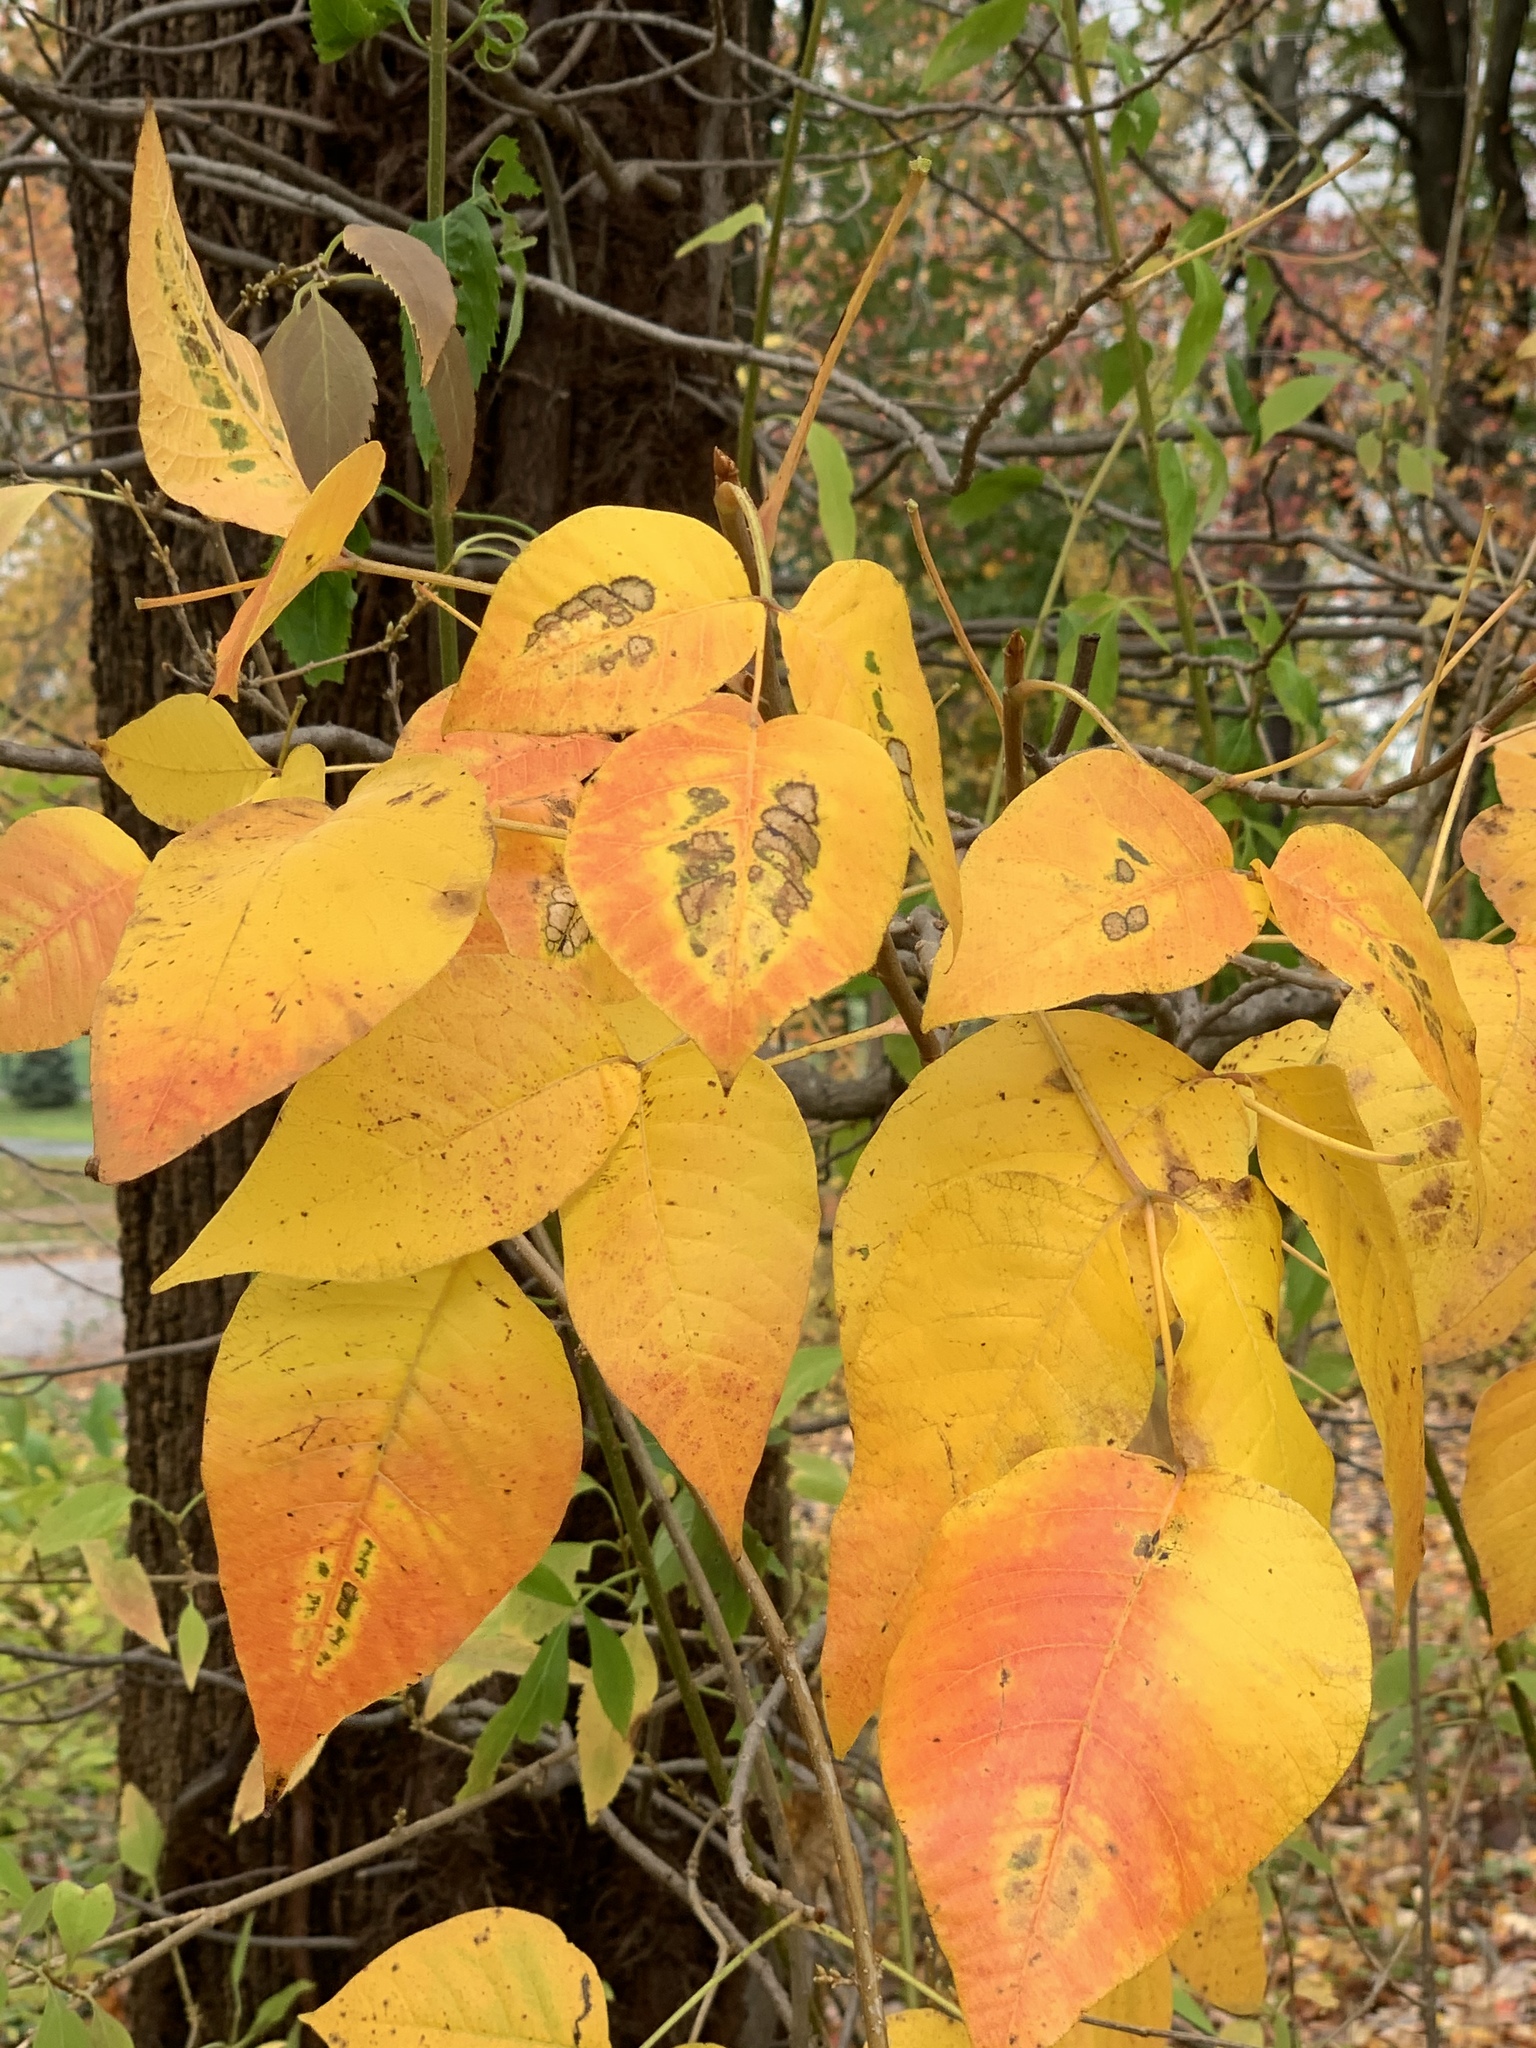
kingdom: Plantae
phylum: Tracheophyta
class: Magnoliopsida
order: Sapindales
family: Anacardiaceae
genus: Toxicodendron
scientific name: Toxicodendron radicans
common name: Poison ivy
